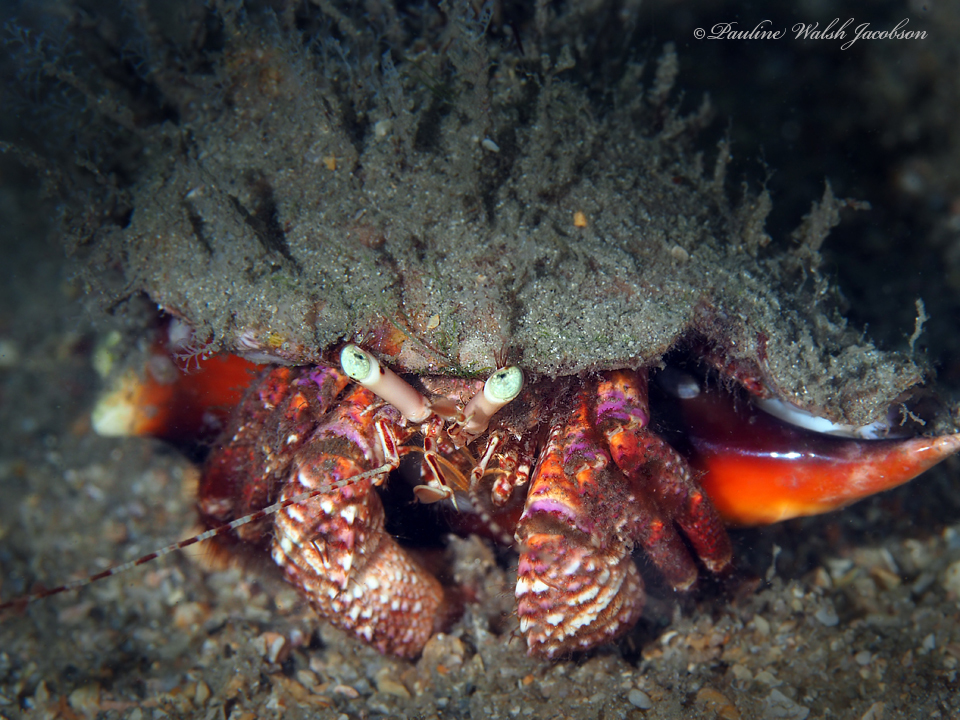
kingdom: Animalia
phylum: Arthropoda
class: Malacostraca
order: Decapoda
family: Diogenidae
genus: Petrochirus
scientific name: Petrochirus diogenes
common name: Giant hermit crab
